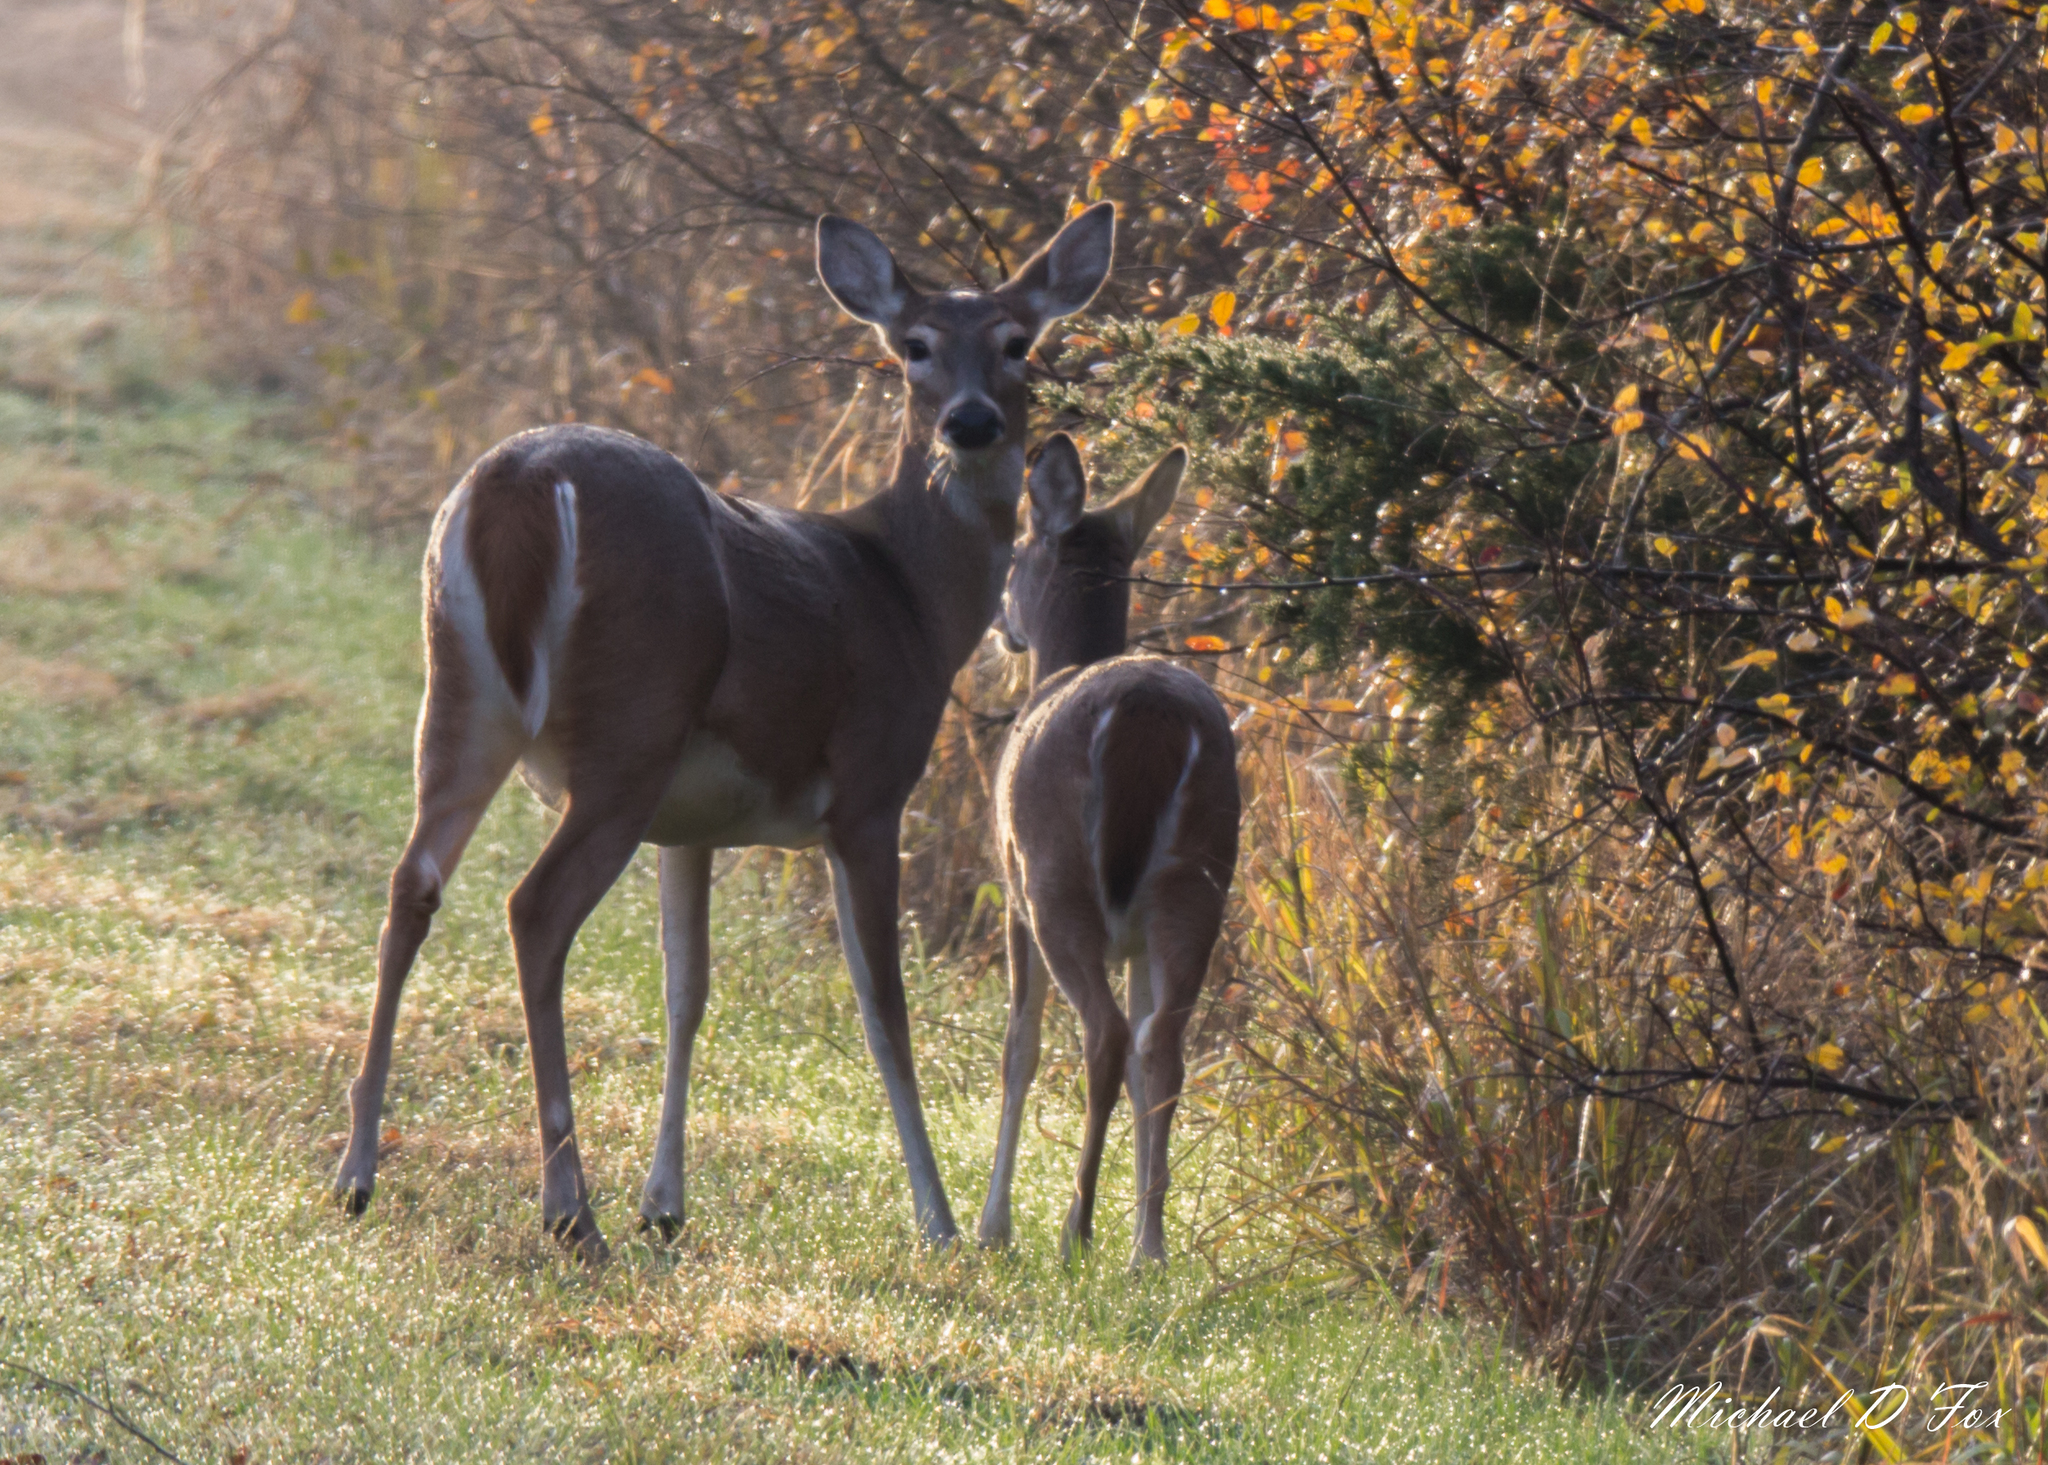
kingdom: Animalia
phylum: Chordata
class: Mammalia
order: Artiodactyla
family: Cervidae
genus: Odocoileus
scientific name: Odocoileus virginianus
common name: White-tailed deer
